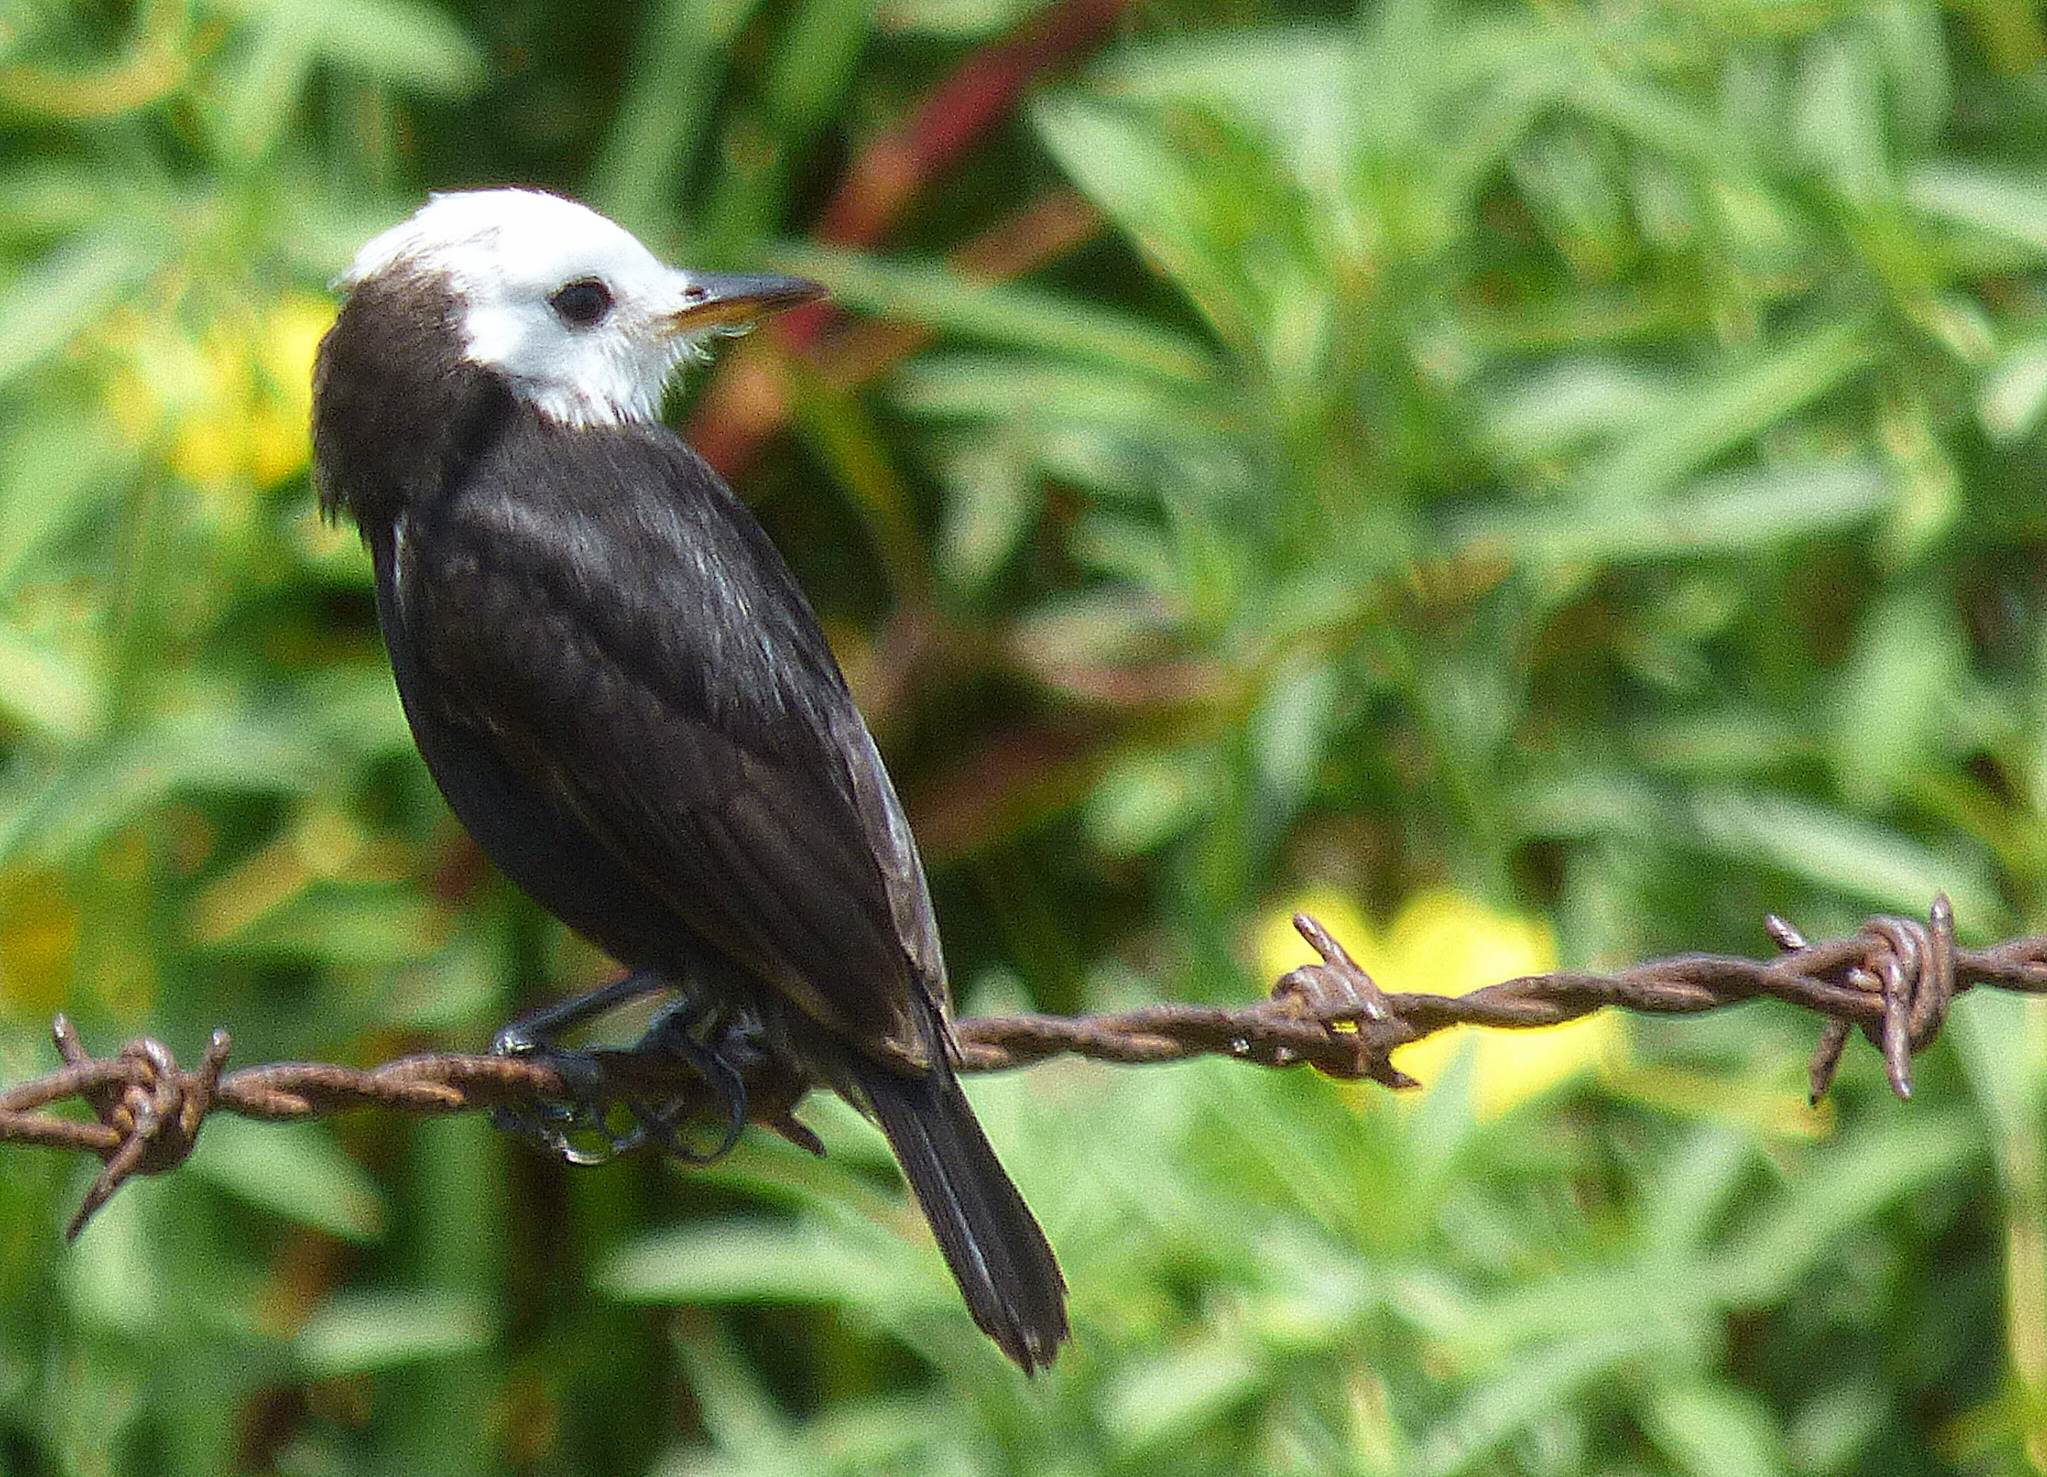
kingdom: Animalia
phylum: Chordata
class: Aves
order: Passeriformes
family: Tyrannidae
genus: Arundinicola
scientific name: Arundinicola leucocephala
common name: White-headed marsh tyrant
